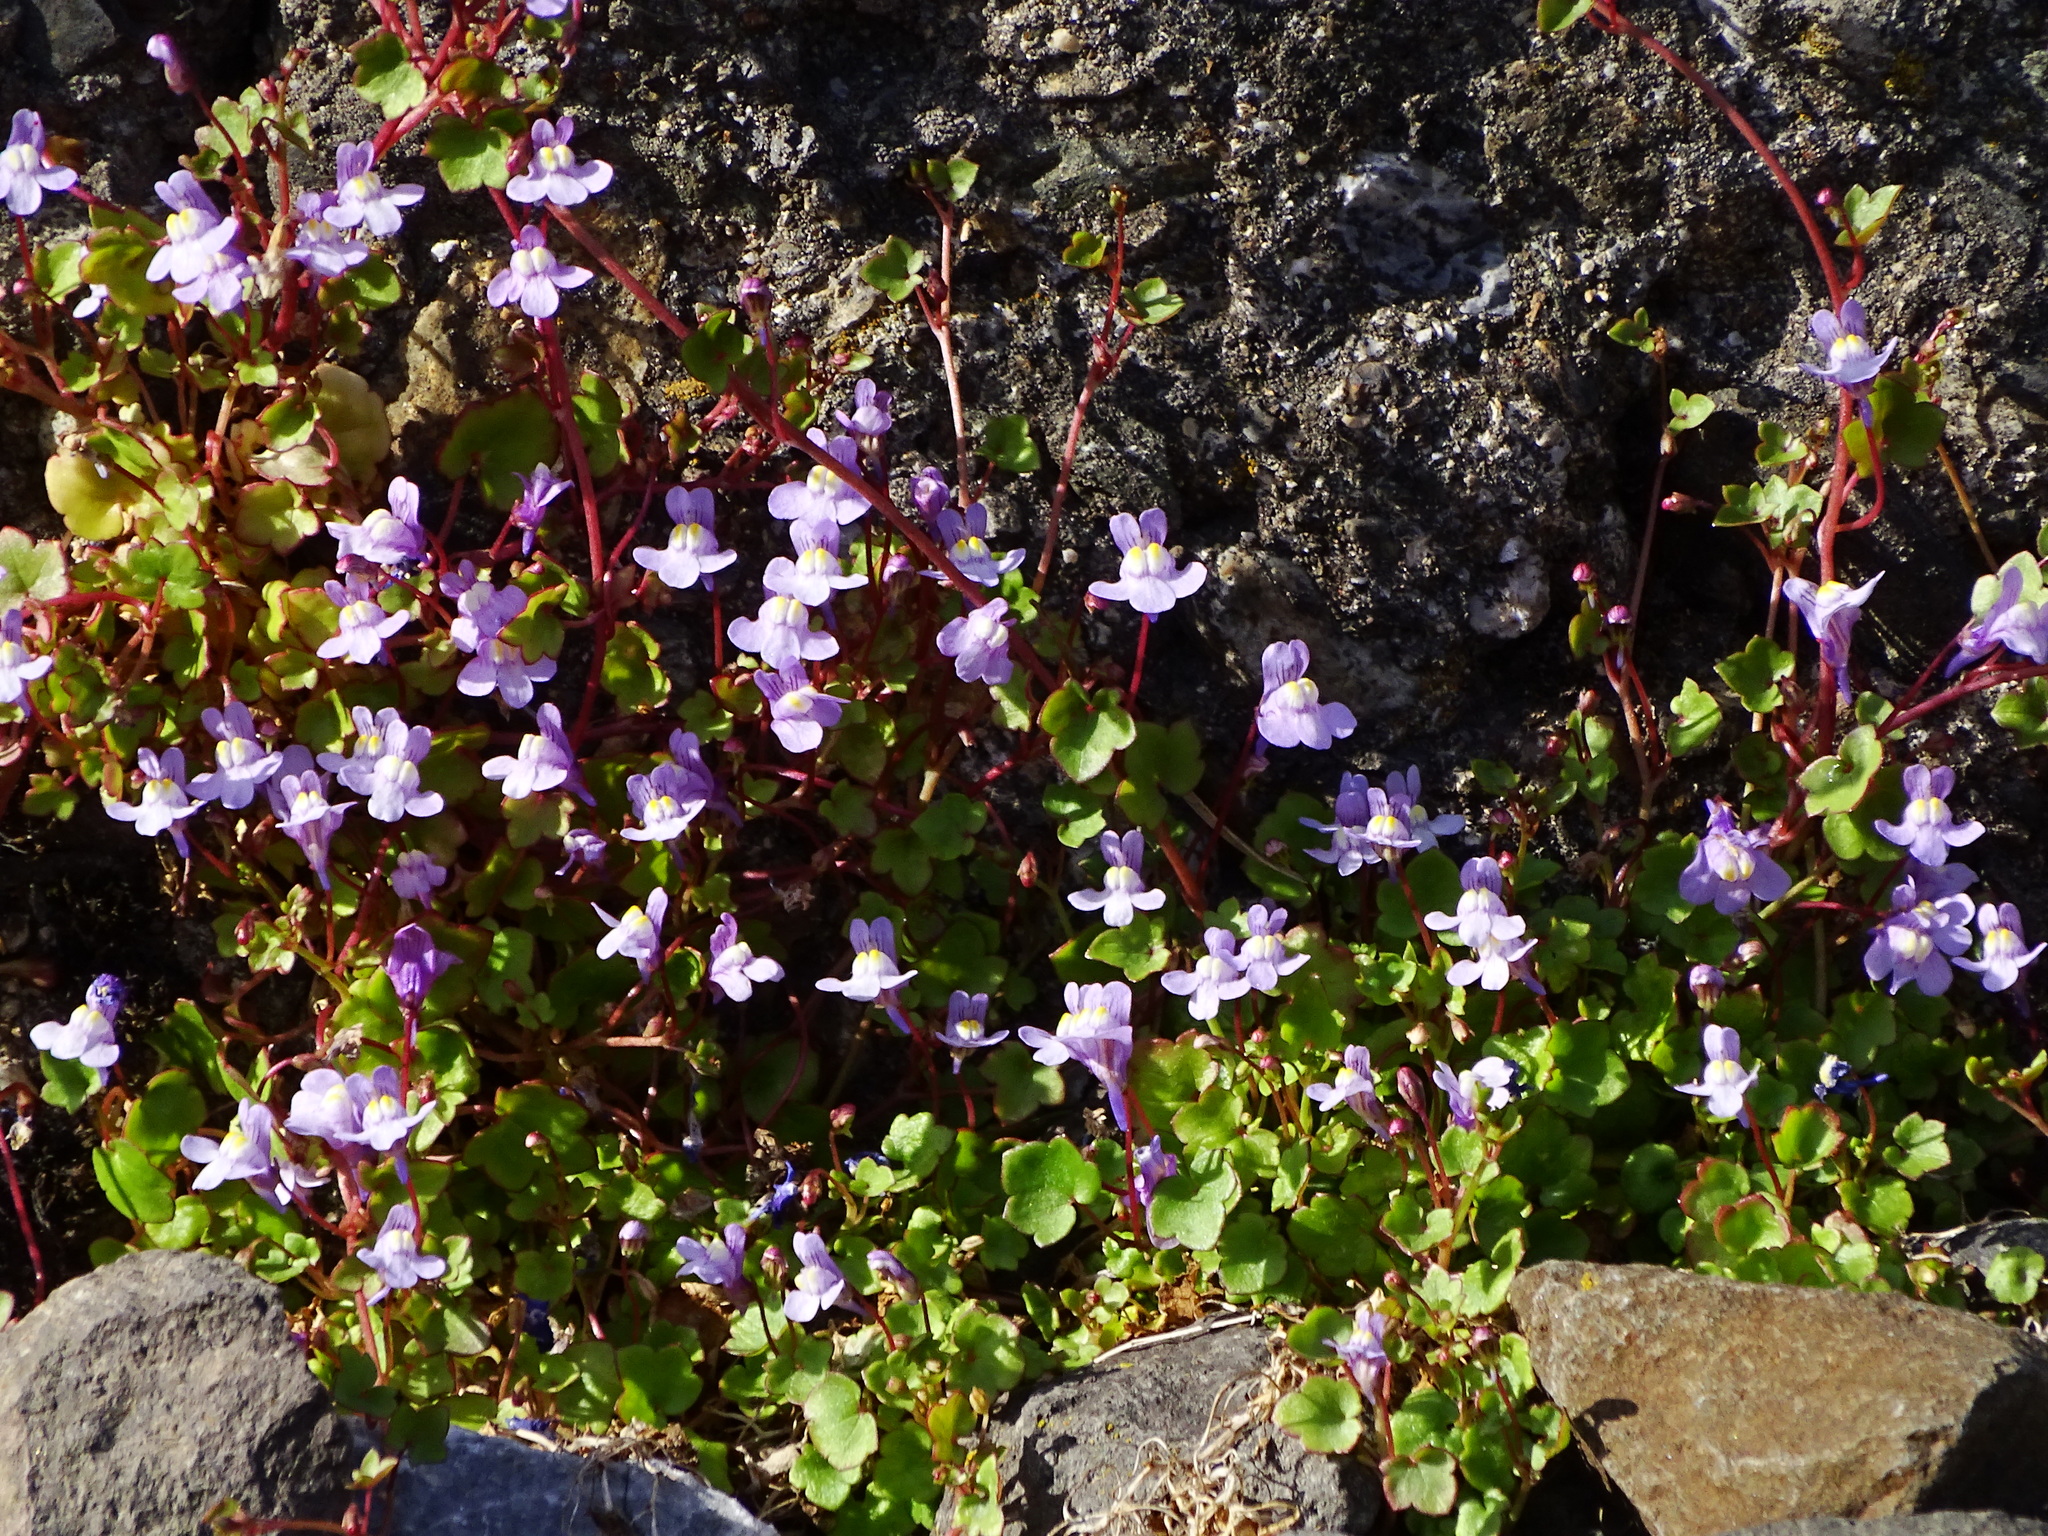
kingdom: Plantae
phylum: Tracheophyta
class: Magnoliopsida
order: Lamiales
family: Plantaginaceae
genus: Cymbalaria
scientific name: Cymbalaria muralis
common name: Ivy-leaved toadflax
